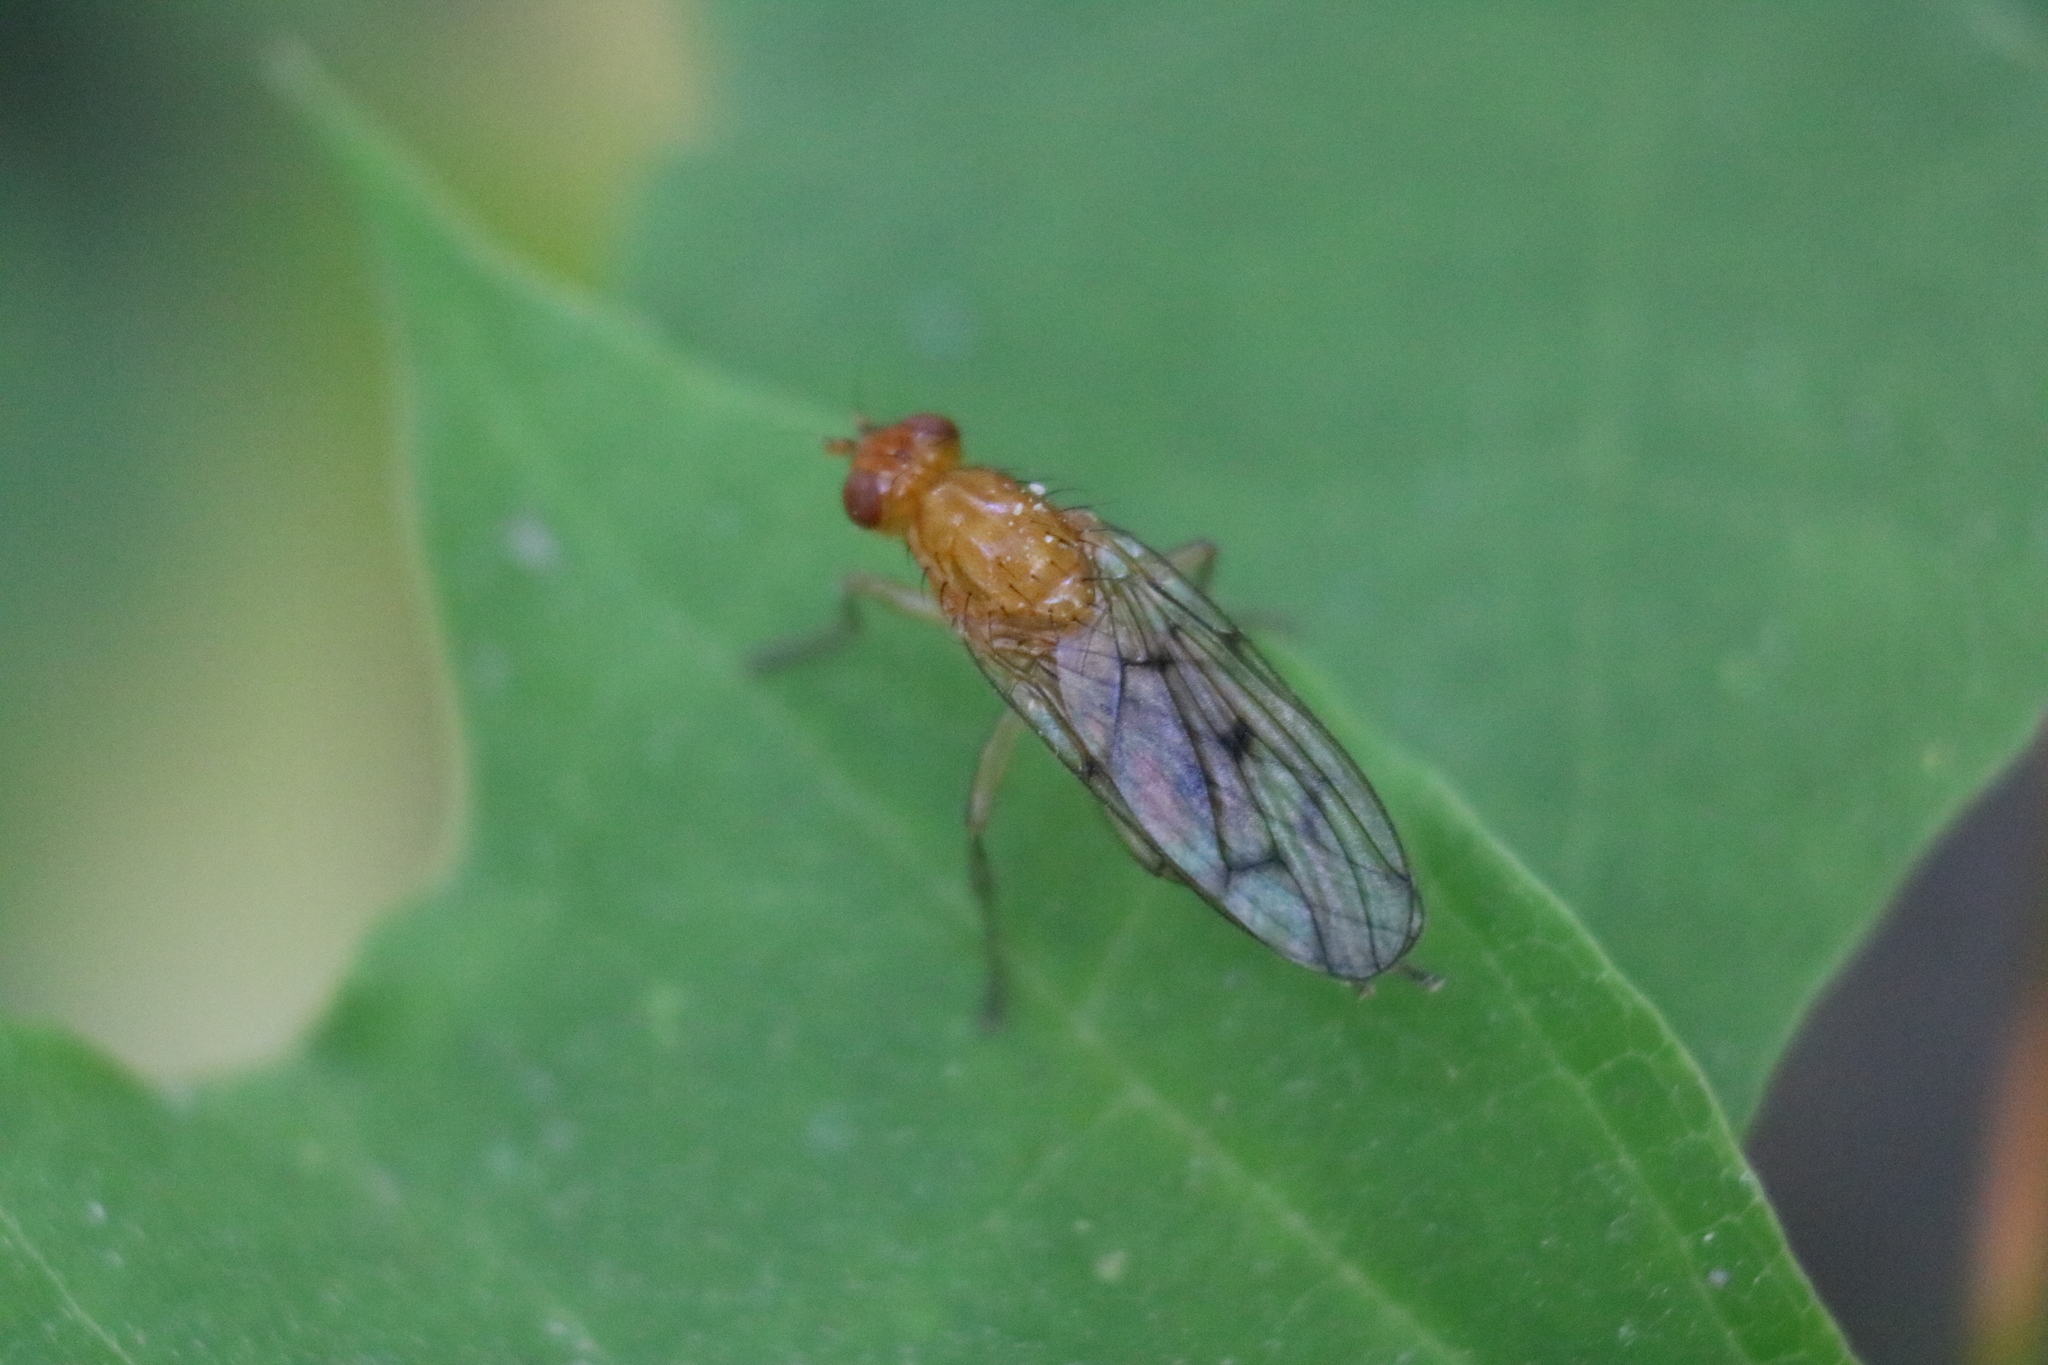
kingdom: Animalia
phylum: Arthropoda
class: Insecta
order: Diptera
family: Dryomyzidae
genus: Dryomyza
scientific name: Dryomyza anilis
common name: Marsh fly
